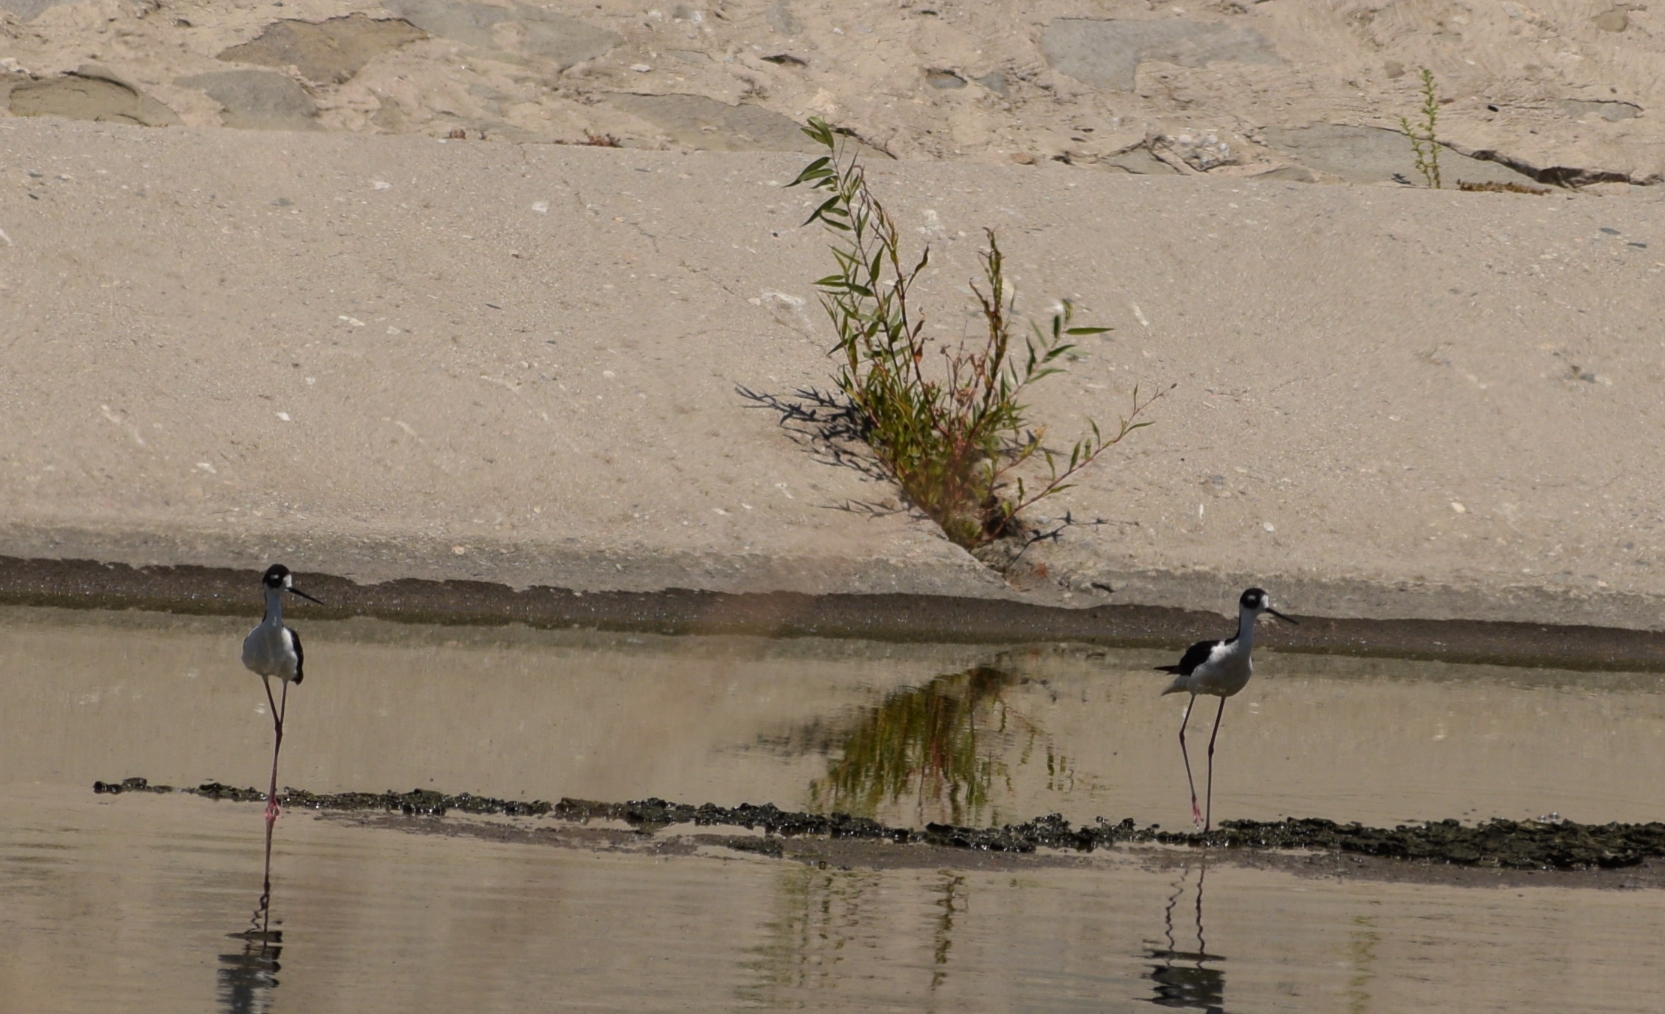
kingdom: Animalia
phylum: Chordata
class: Aves
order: Charadriiformes
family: Recurvirostridae
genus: Himantopus
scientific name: Himantopus mexicanus
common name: Black-necked stilt
